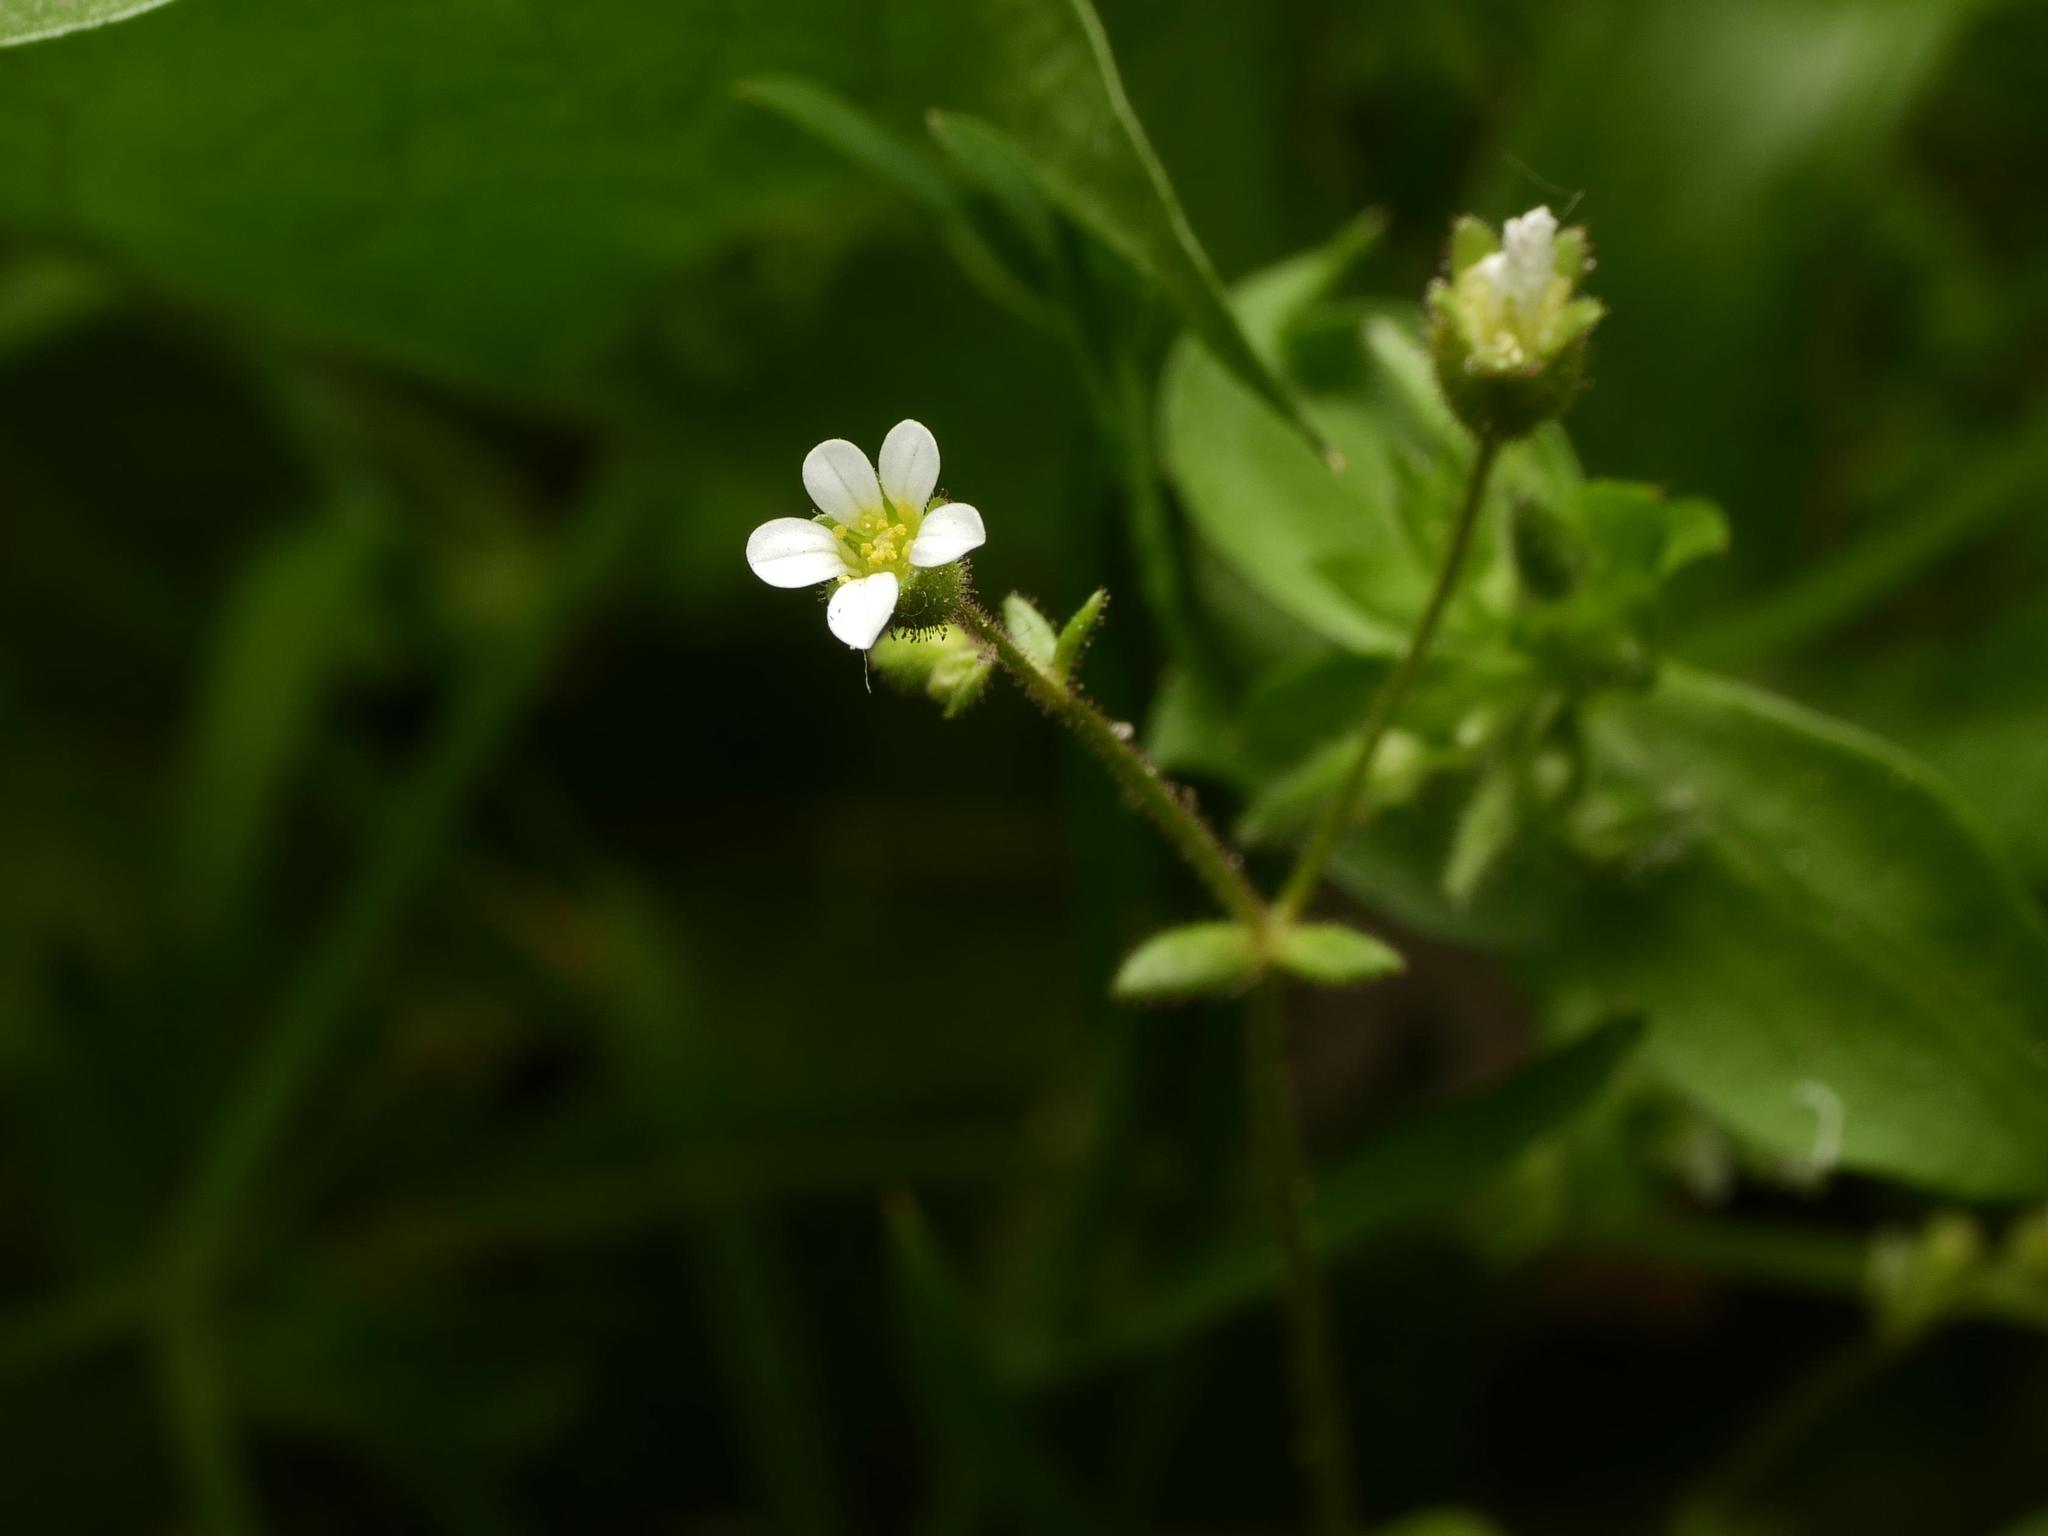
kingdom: Plantae
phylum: Tracheophyta
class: Magnoliopsida
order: Saxifragales
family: Saxifragaceae
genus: Saxifraga
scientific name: Saxifraga tridactylites
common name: Rue-leaved saxifrage
